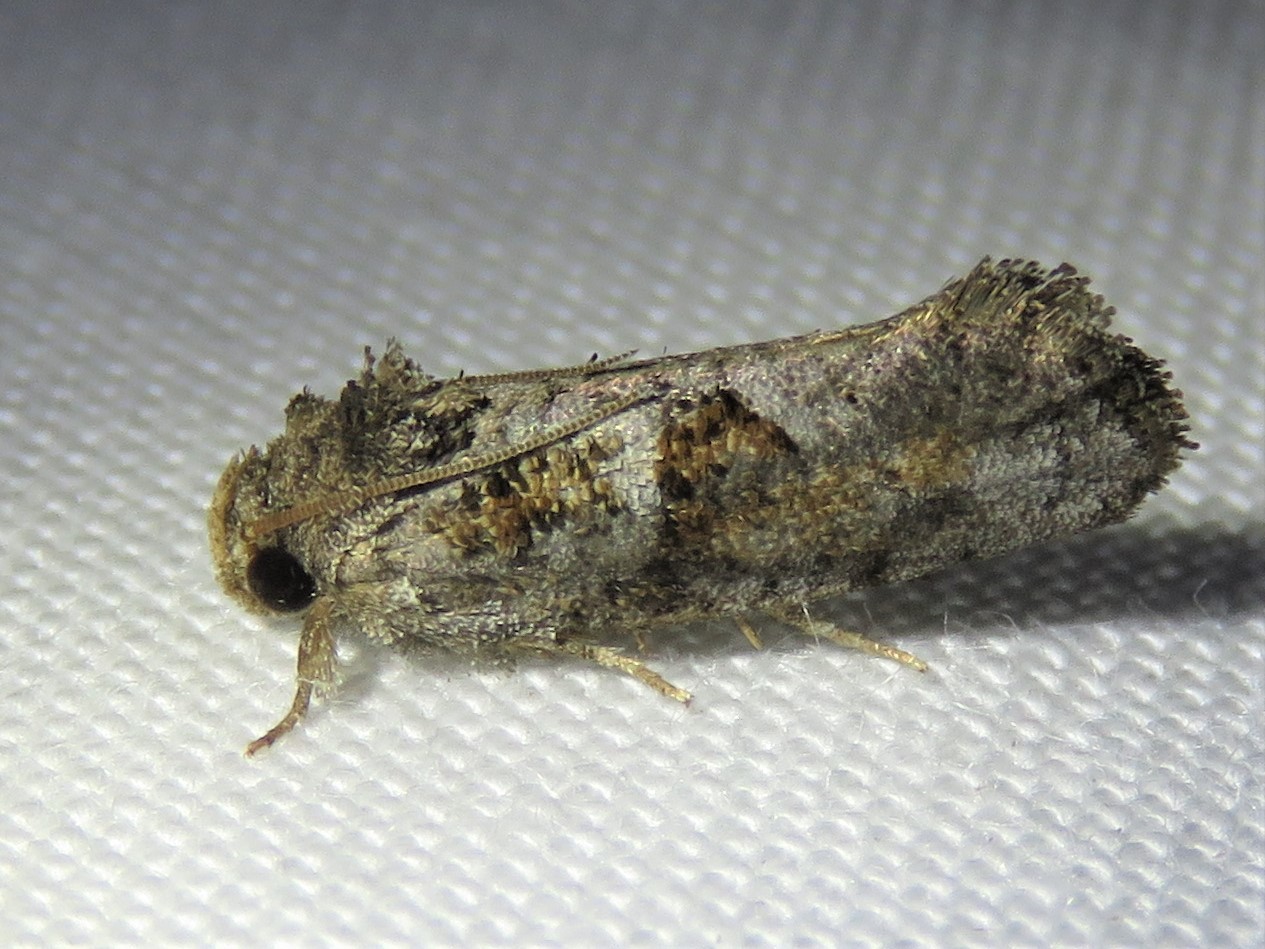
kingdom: Animalia
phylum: Arthropoda
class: Insecta
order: Lepidoptera
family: Tineidae
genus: Acrolophus
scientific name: Acrolophus piger
